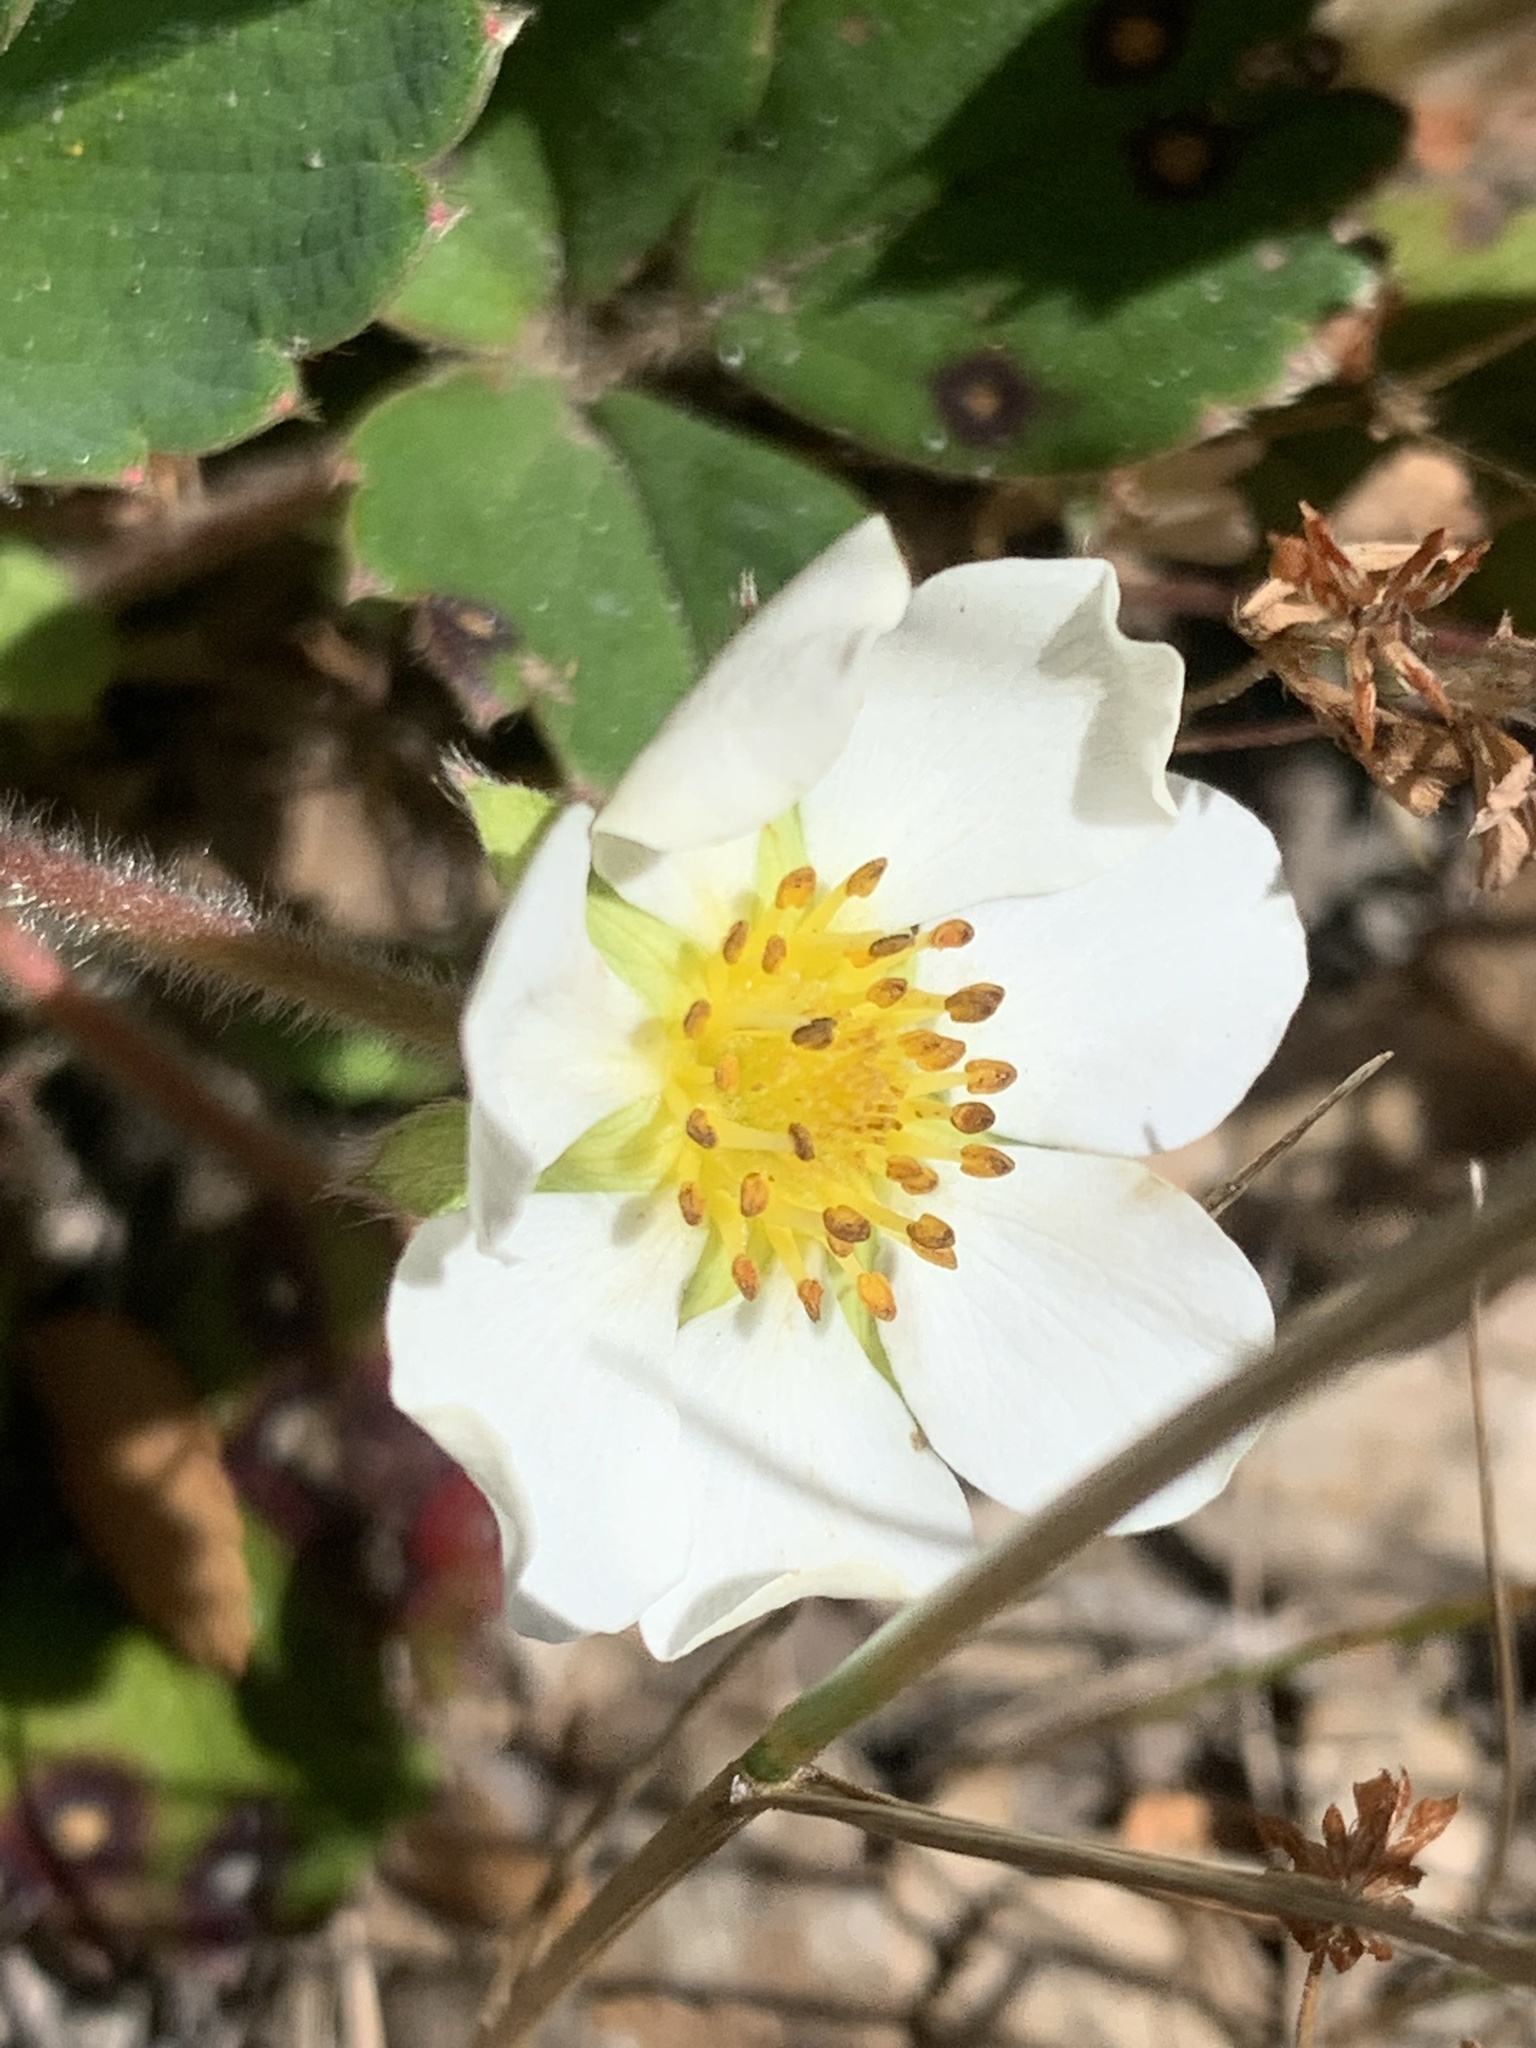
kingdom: Plantae
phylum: Tracheophyta
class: Magnoliopsida
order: Rosales
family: Rosaceae
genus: Fragaria
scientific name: Fragaria chiloensis
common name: Beach strawberry
